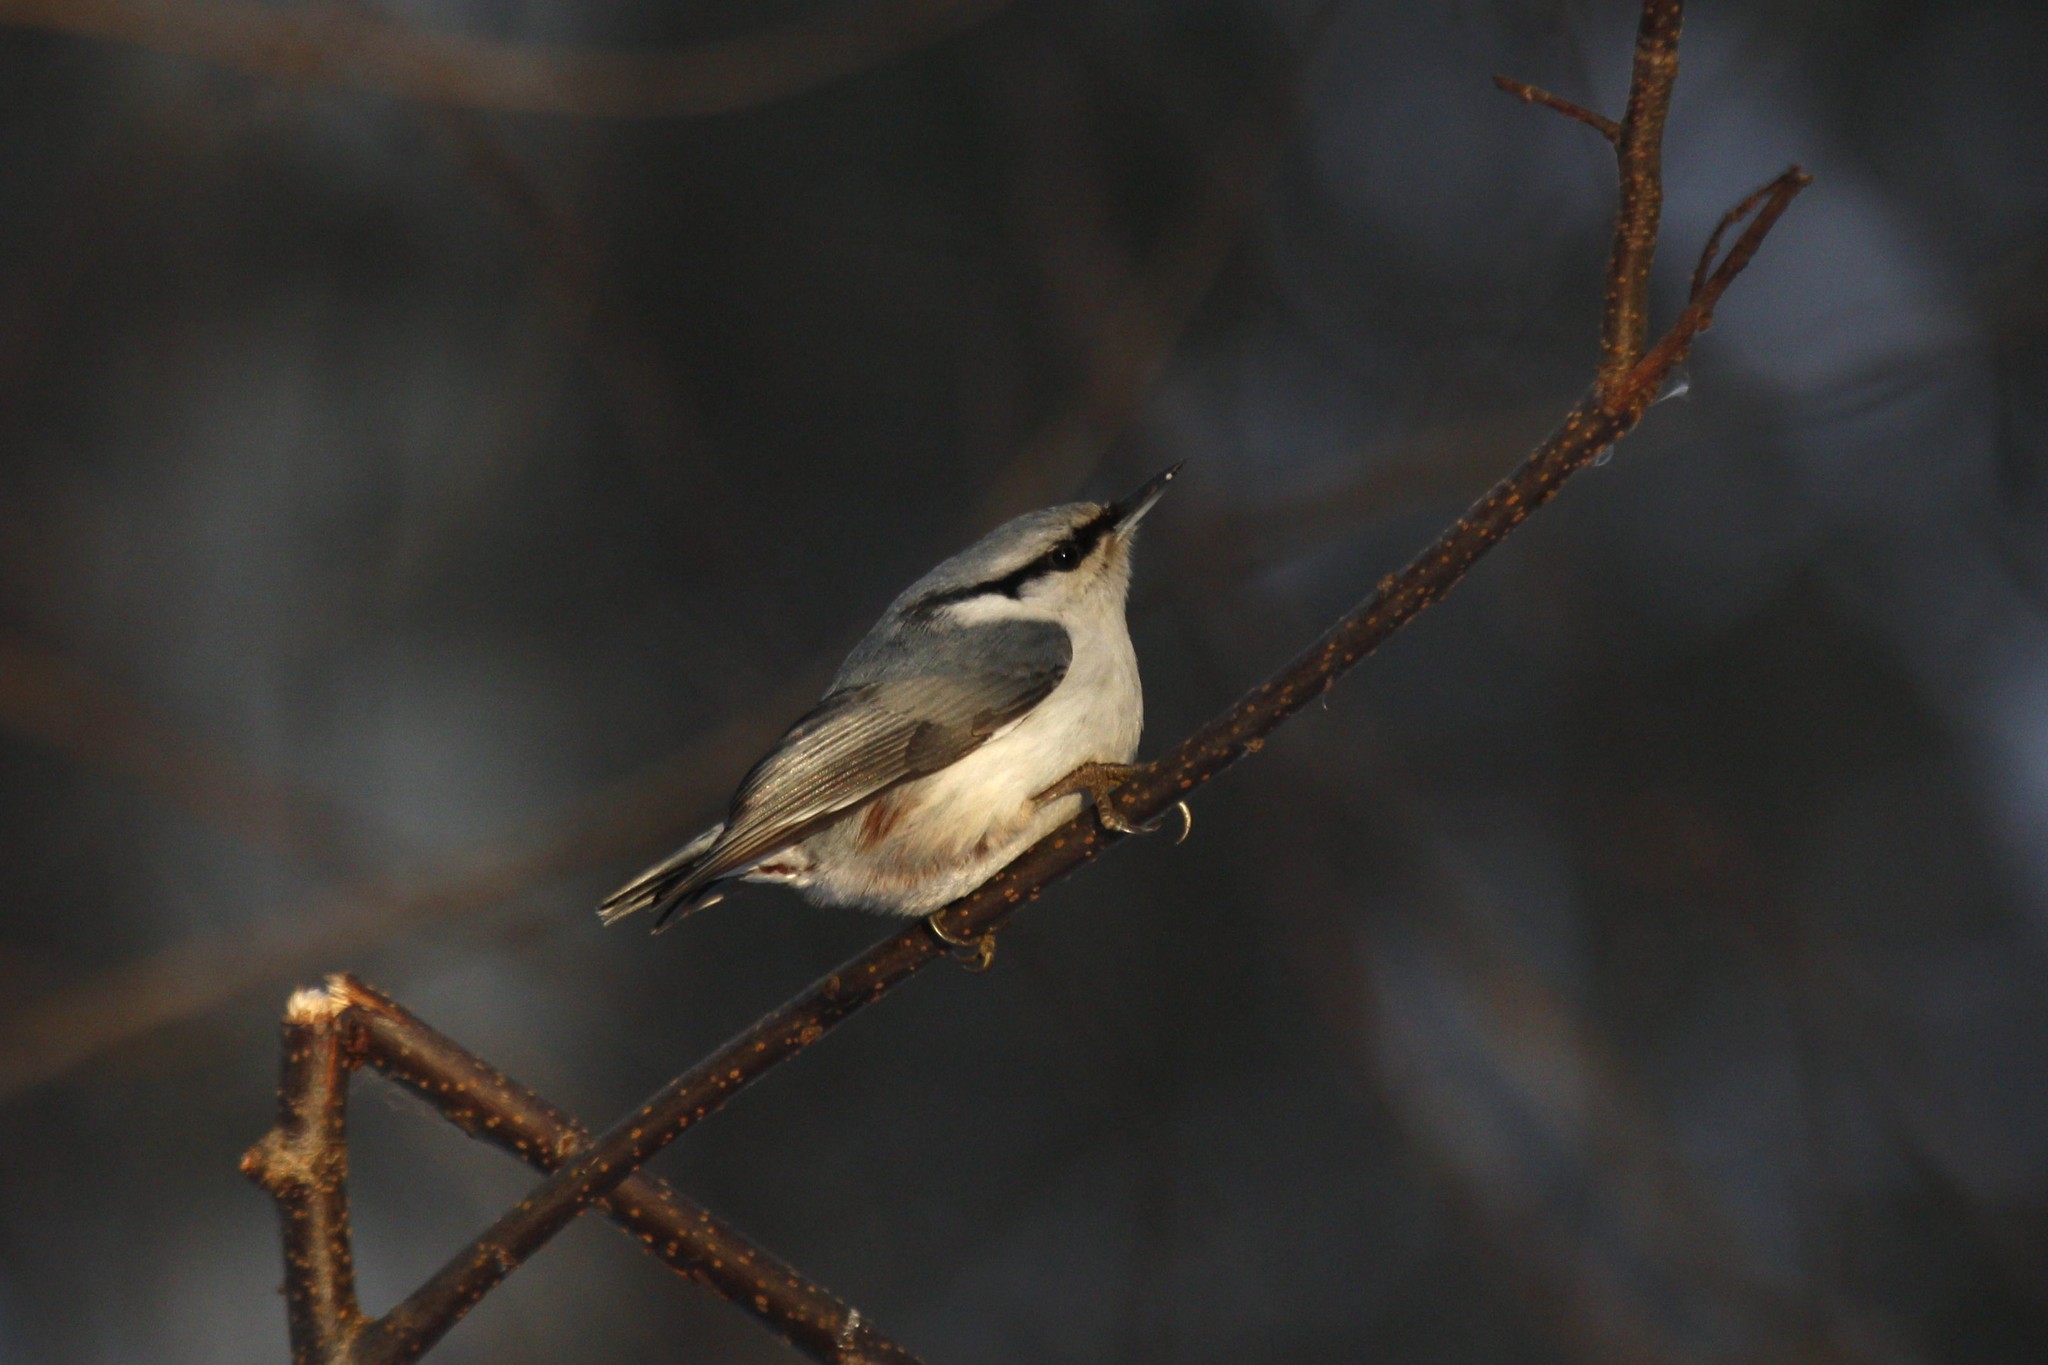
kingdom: Animalia
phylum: Chordata
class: Aves
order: Passeriformes
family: Sittidae
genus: Sitta
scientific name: Sitta europaea
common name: Eurasian nuthatch
